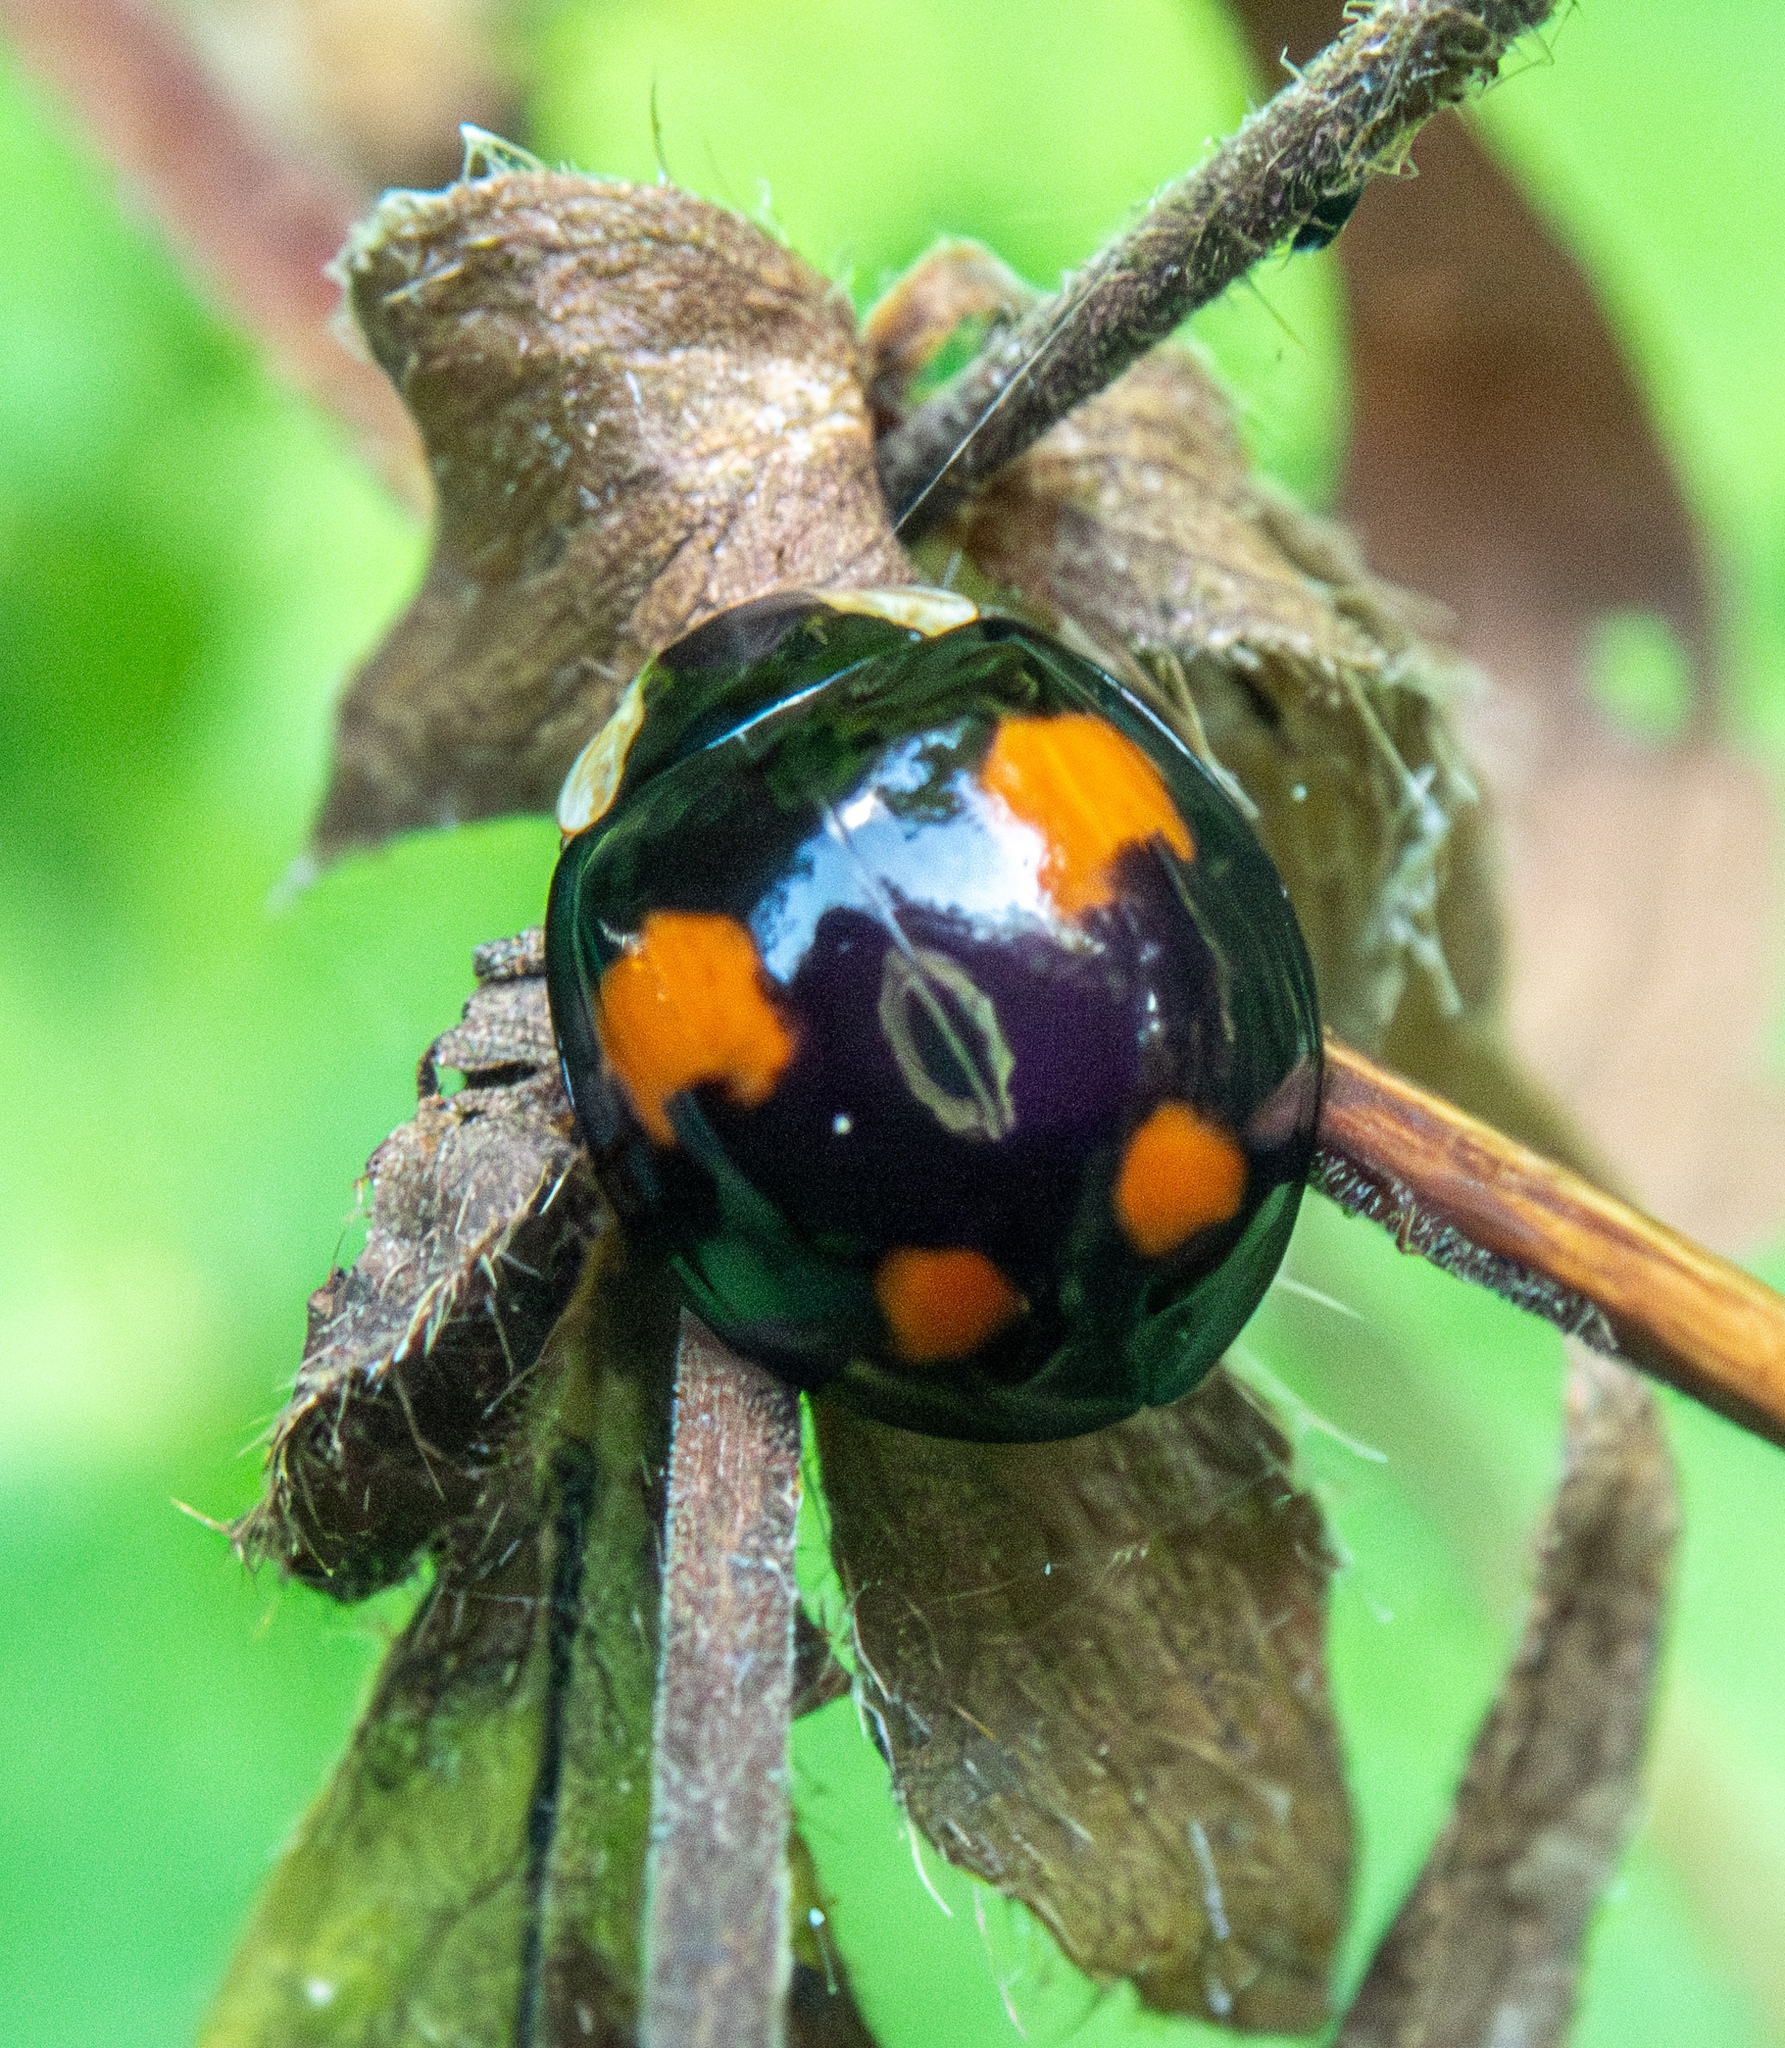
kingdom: Animalia
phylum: Arthropoda
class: Insecta
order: Coleoptera
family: Coccinellidae
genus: Harmonia
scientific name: Harmonia axyridis
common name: Harlequin ladybird
